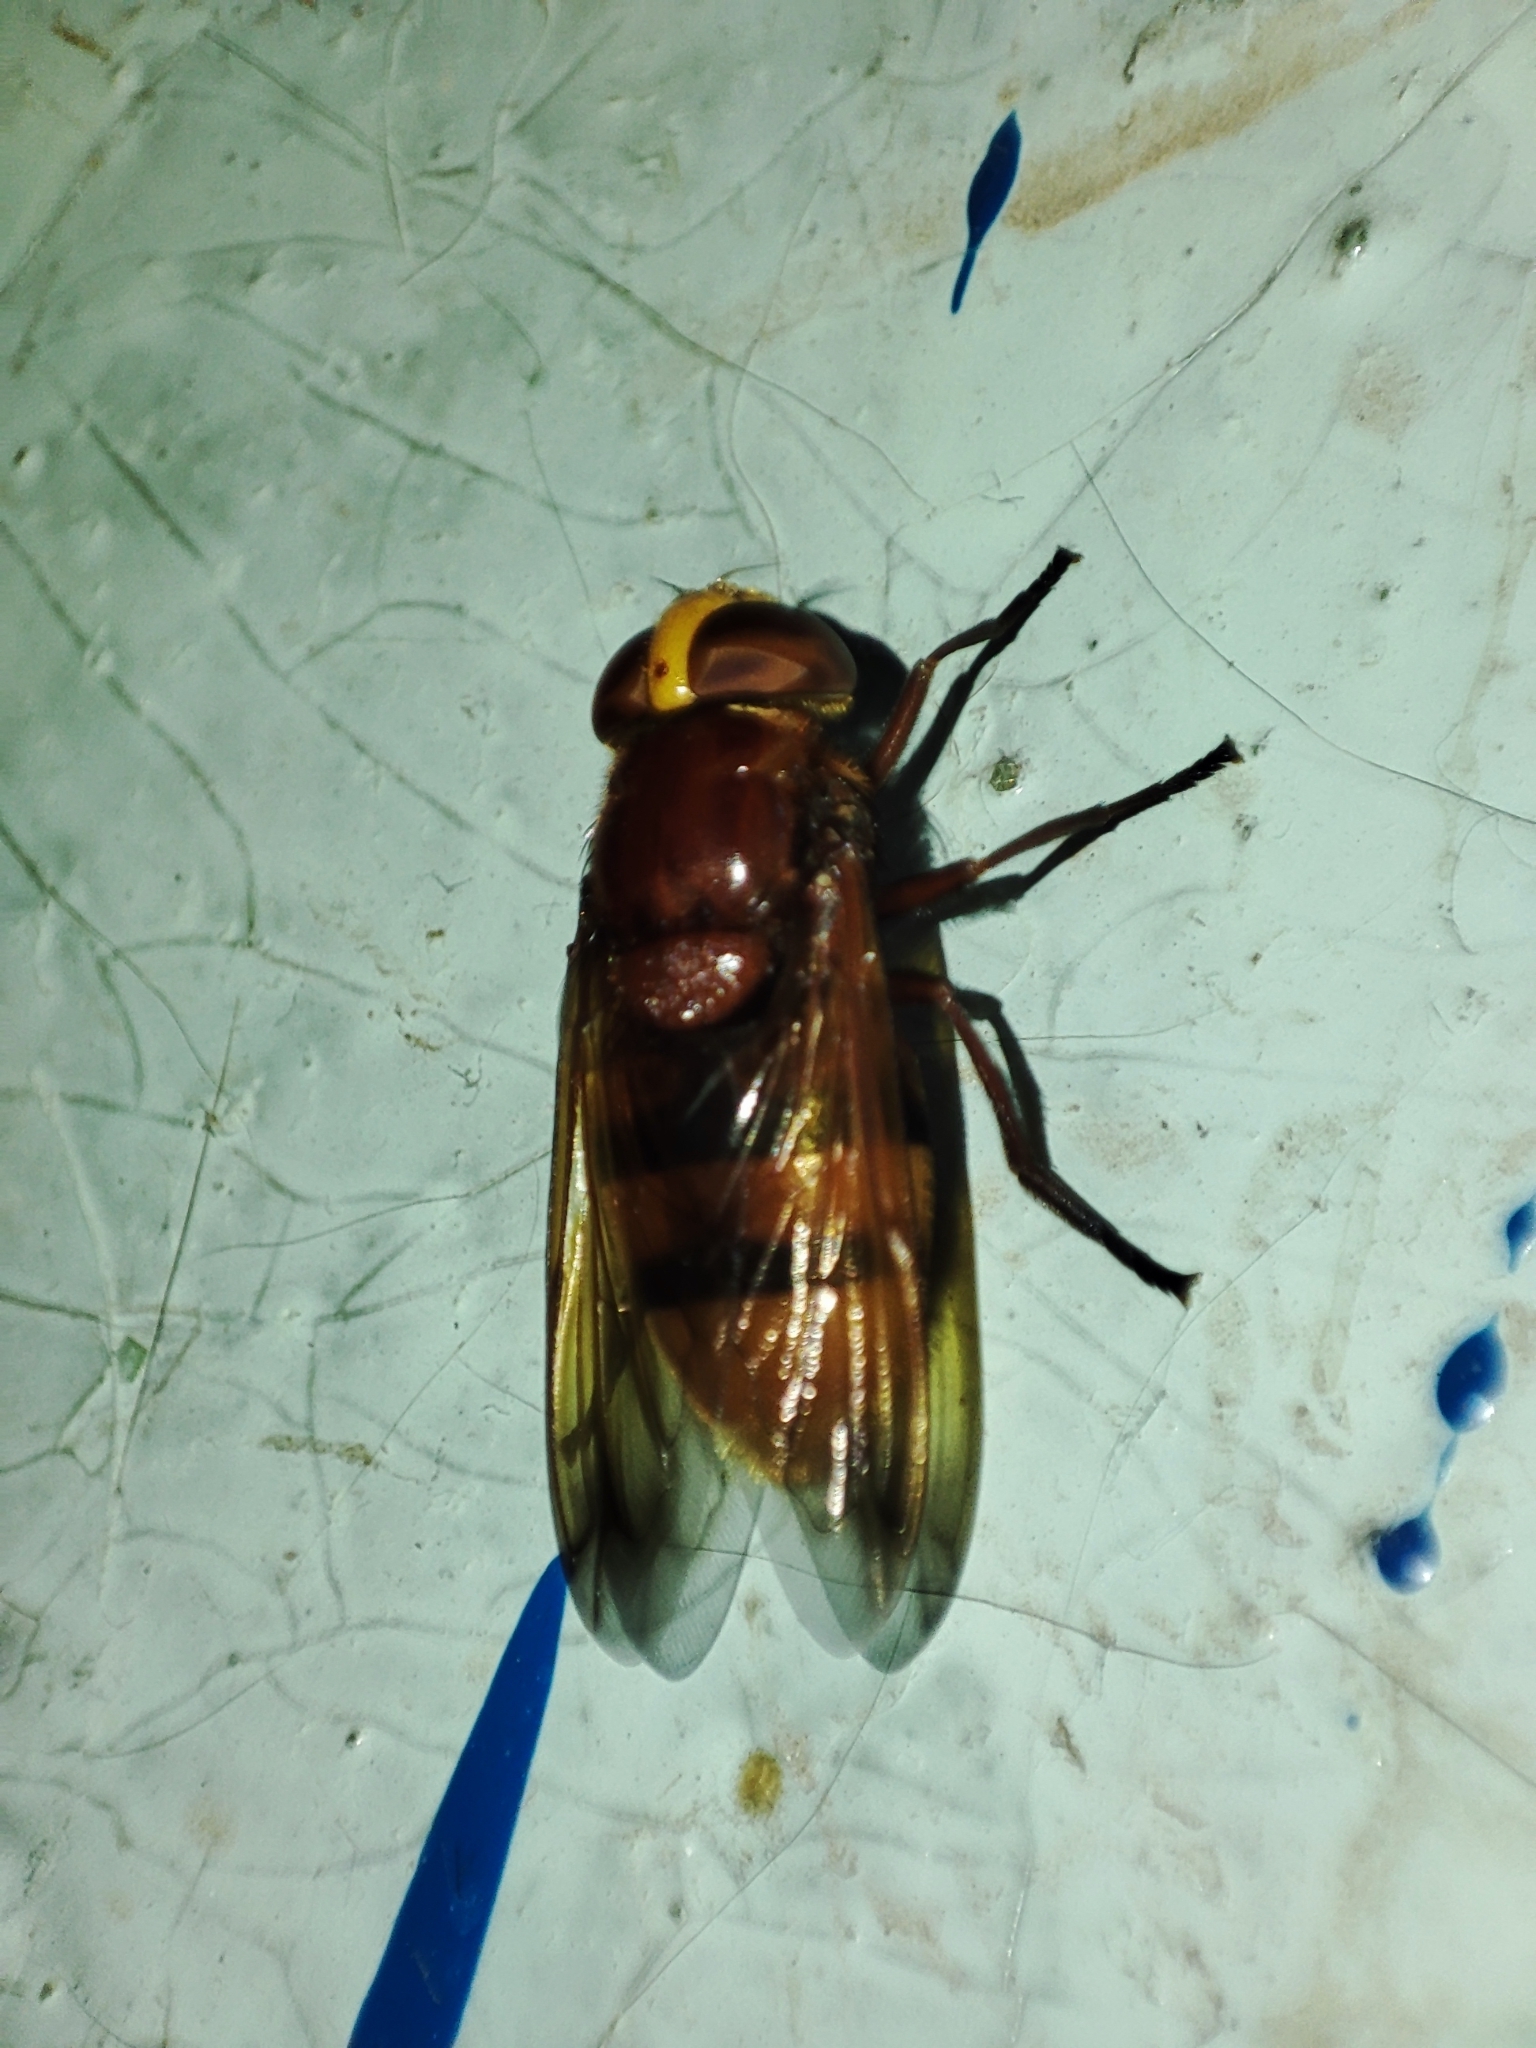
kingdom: Animalia
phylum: Arthropoda
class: Insecta
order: Diptera
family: Syrphidae
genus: Volucella
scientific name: Volucella zonaria
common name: Hornet hoverfly
